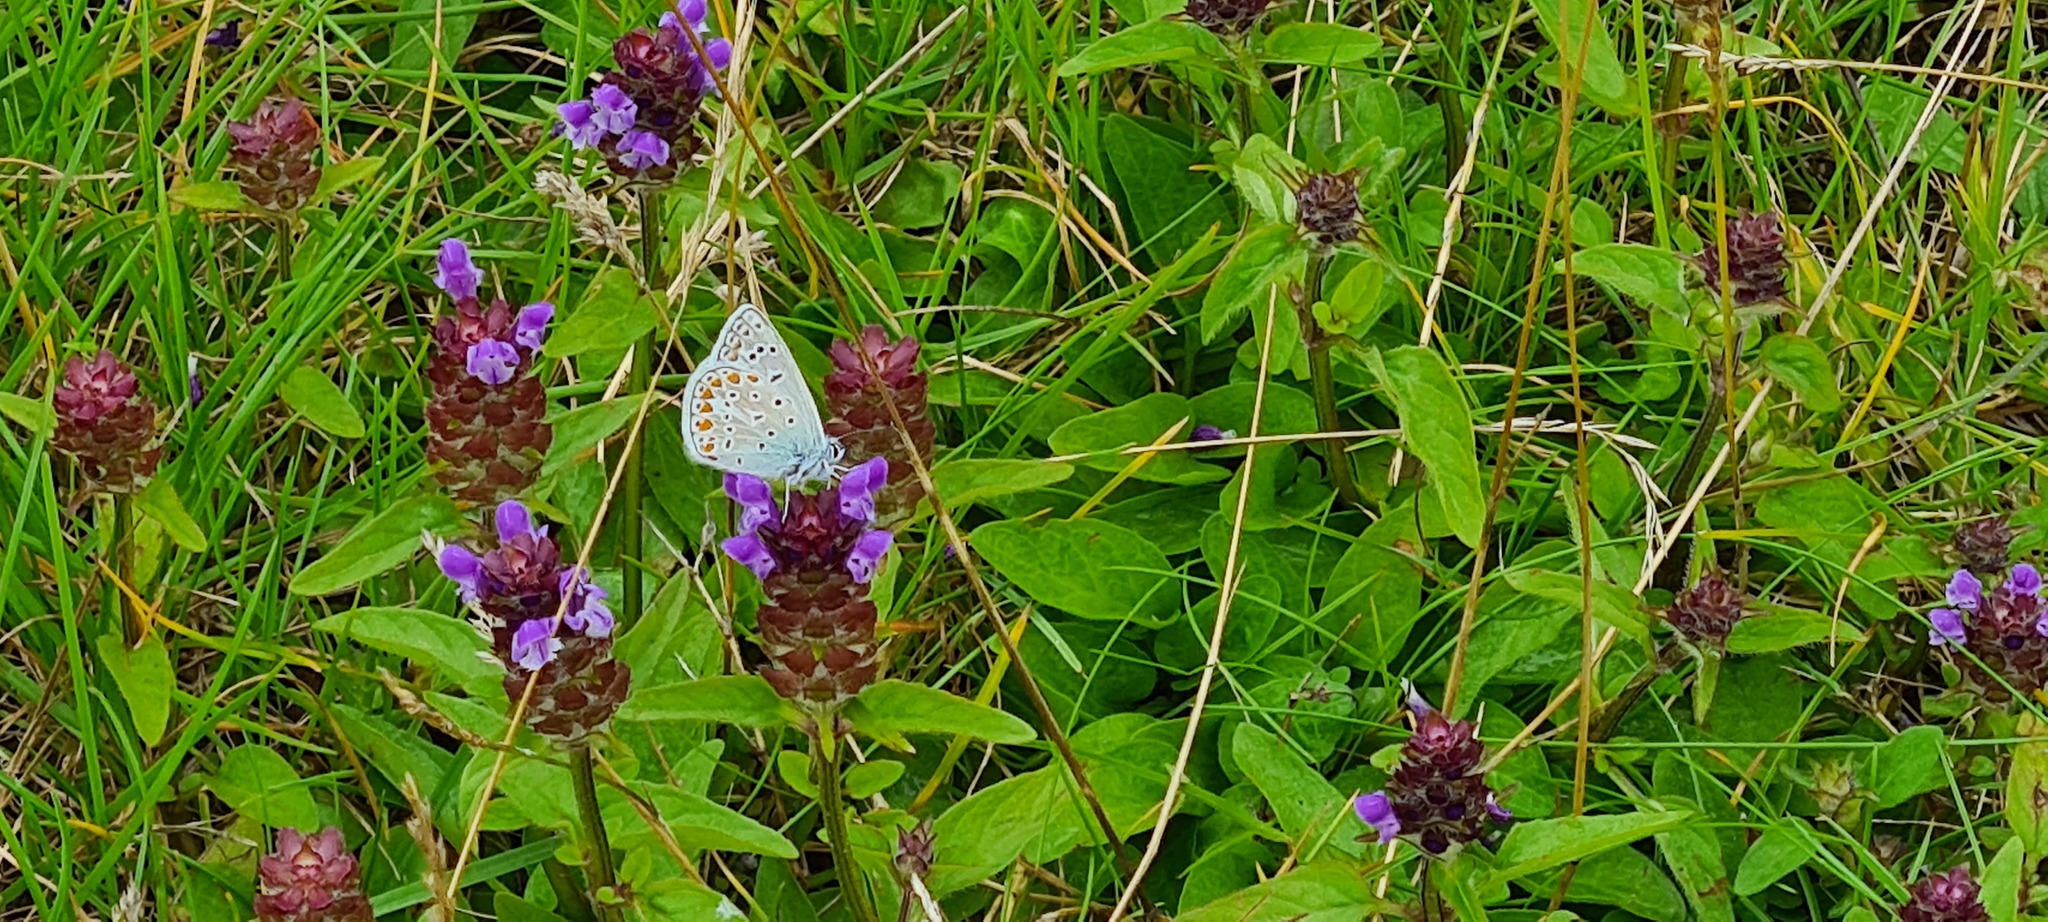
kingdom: Animalia
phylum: Arthropoda
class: Insecta
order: Lepidoptera
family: Lycaenidae
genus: Polyommatus
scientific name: Polyommatus icarus
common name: Common blue
